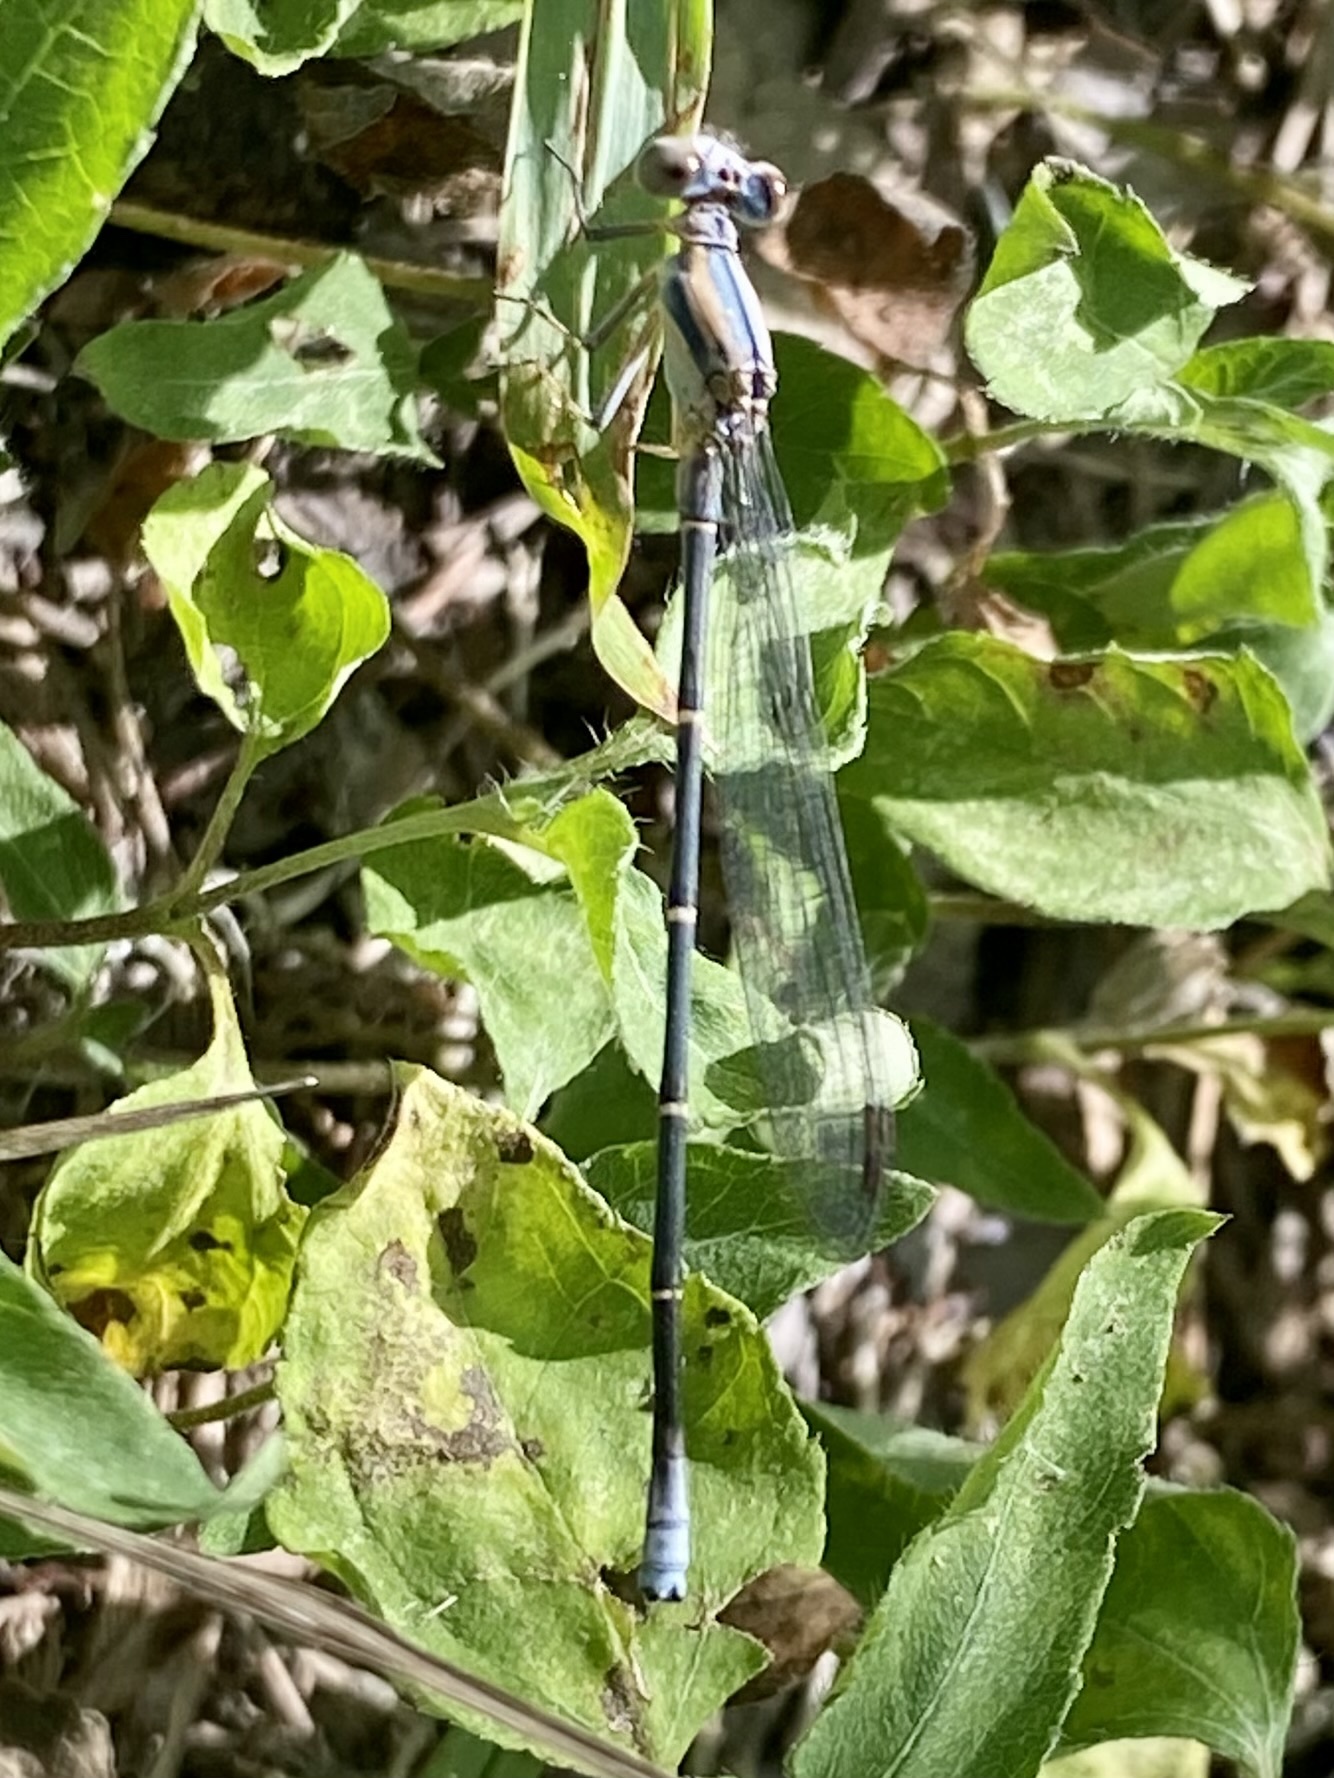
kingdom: Animalia
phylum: Arthropoda
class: Insecta
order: Odonata
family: Coenagrionidae
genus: Argia
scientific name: Argia moesta
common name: Powdered dancer
